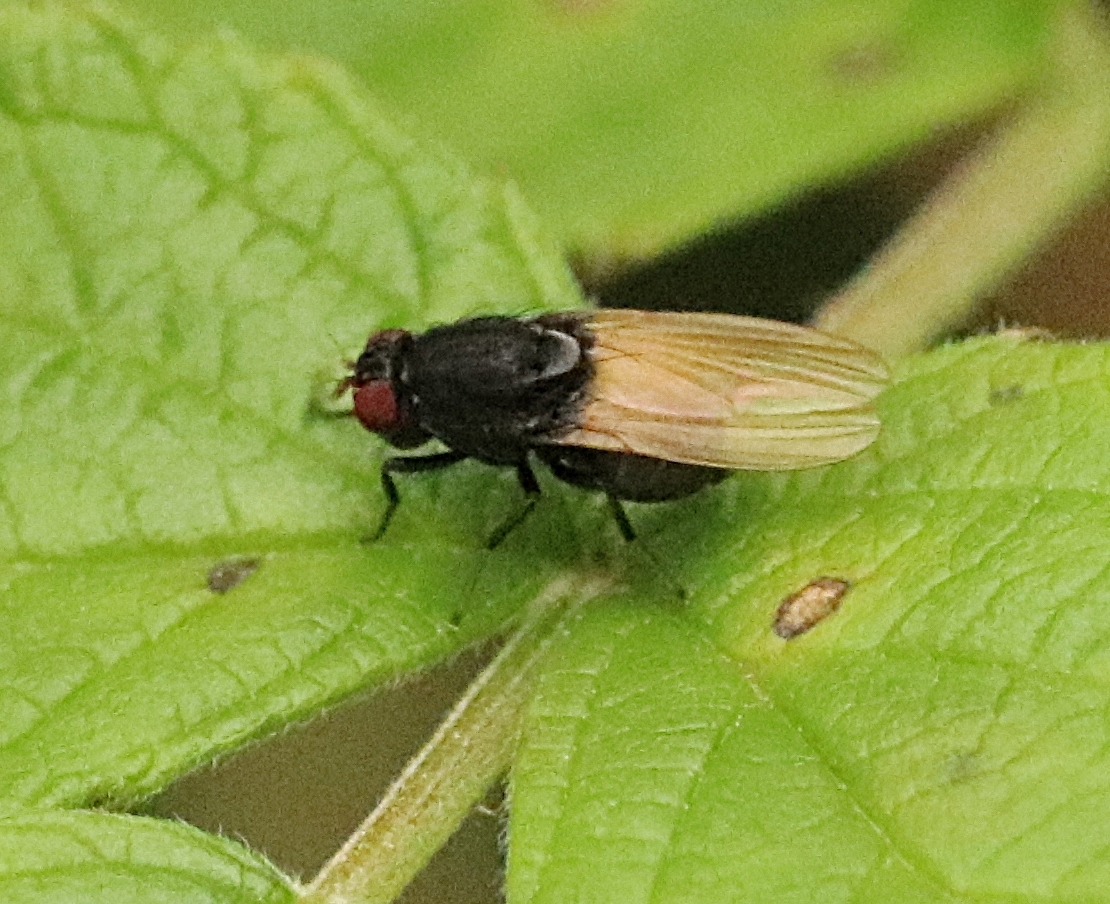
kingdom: Animalia
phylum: Arthropoda
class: Insecta
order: Diptera
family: Lauxaniidae
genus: Minettia
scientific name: Minettia longipennis
